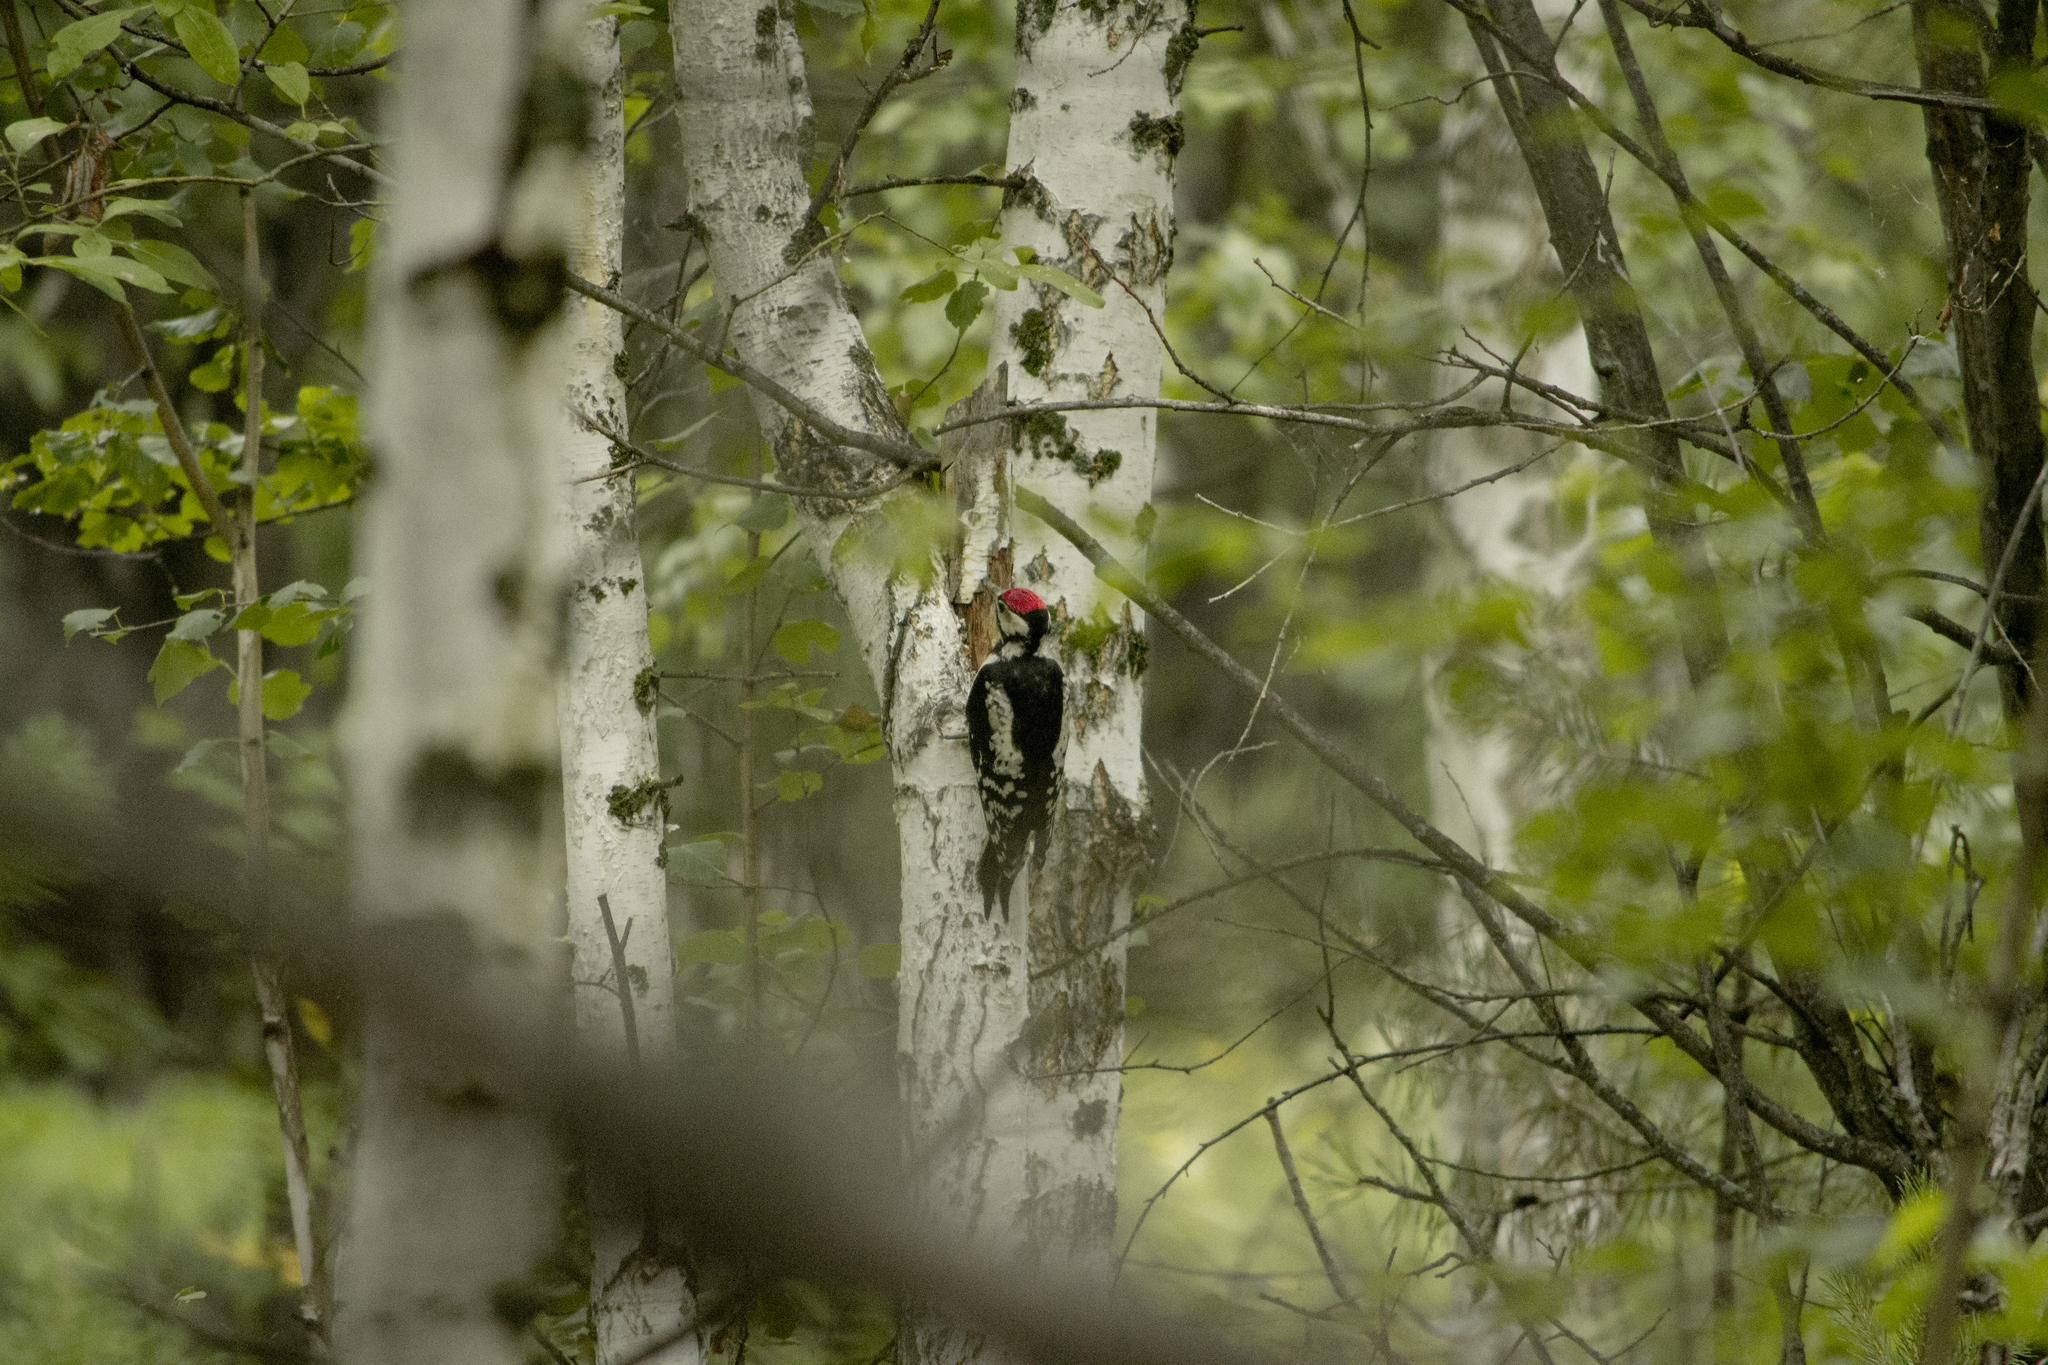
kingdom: Animalia
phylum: Chordata
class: Aves
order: Piciformes
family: Picidae
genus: Dendrocopos
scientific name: Dendrocopos major
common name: Great spotted woodpecker
